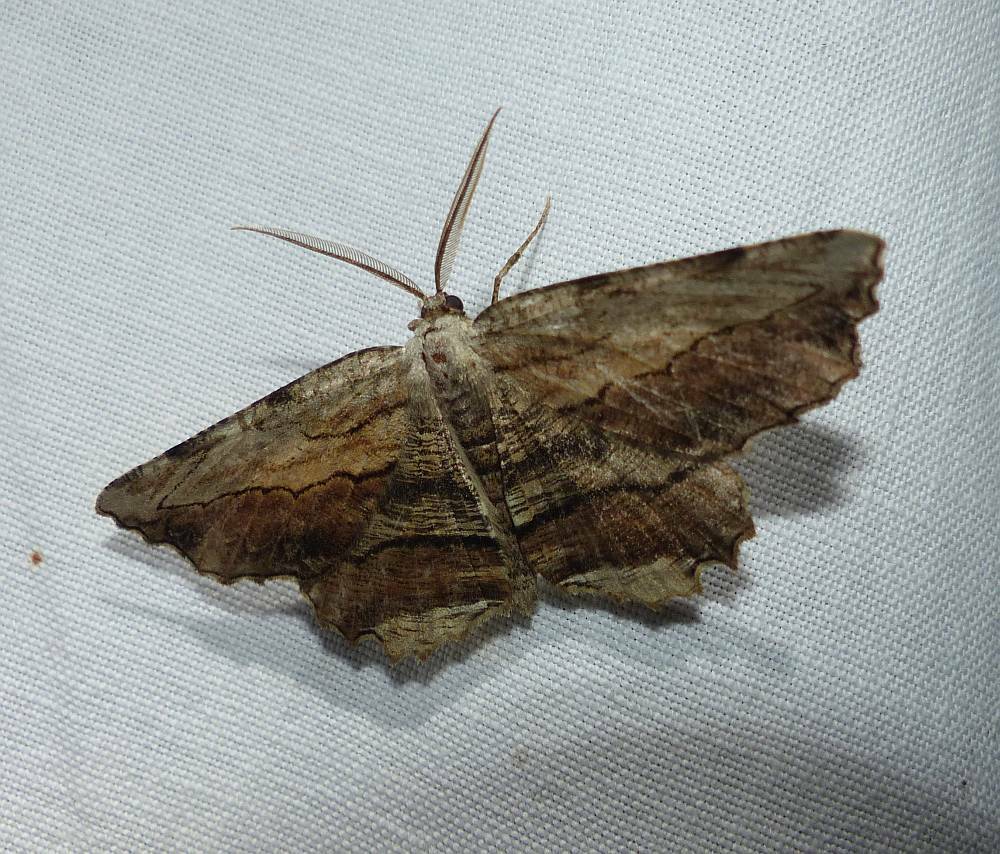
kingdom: Animalia
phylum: Arthropoda
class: Insecta
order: Lepidoptera
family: Geometridae
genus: Lytrosis
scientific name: Lytrosis unitaria
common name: Common lytrosis
